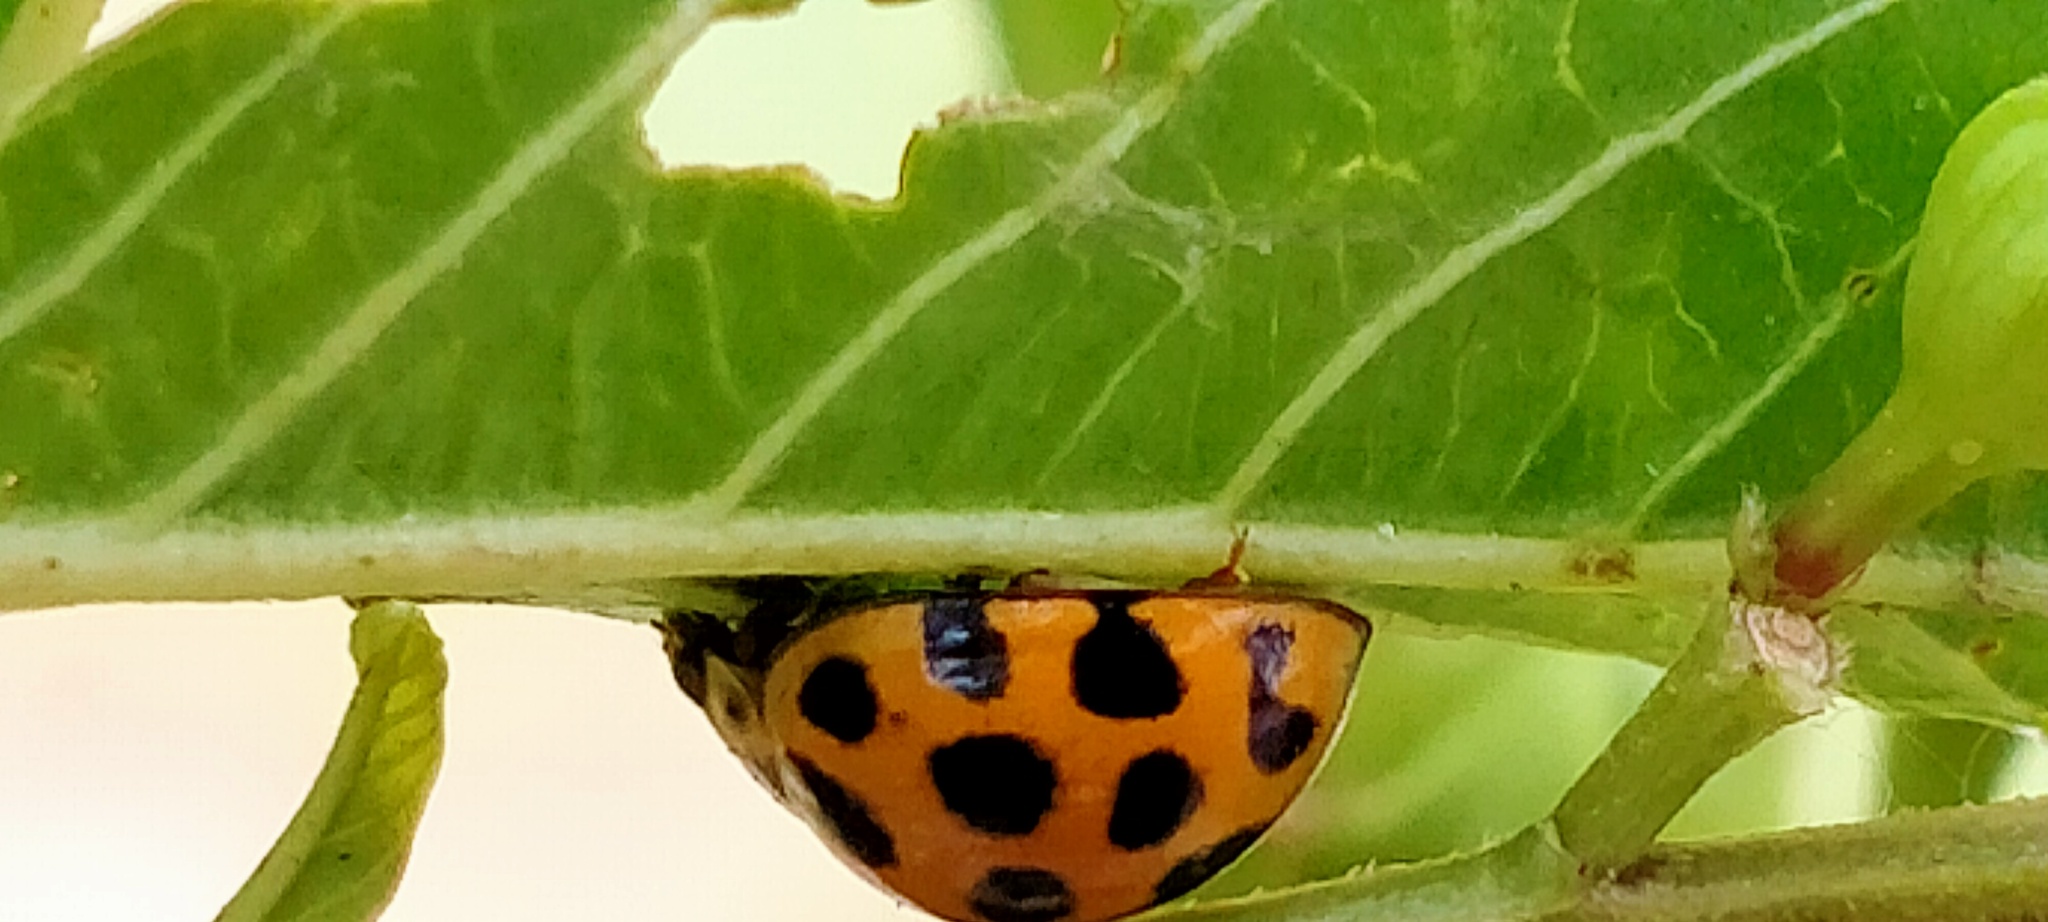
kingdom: Animalia
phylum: Arthropoda
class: Insecta
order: Coleoptera
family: Coccinellidae
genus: Harmonia
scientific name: Harmonia conformis
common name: Common spotted ladybird beetle
